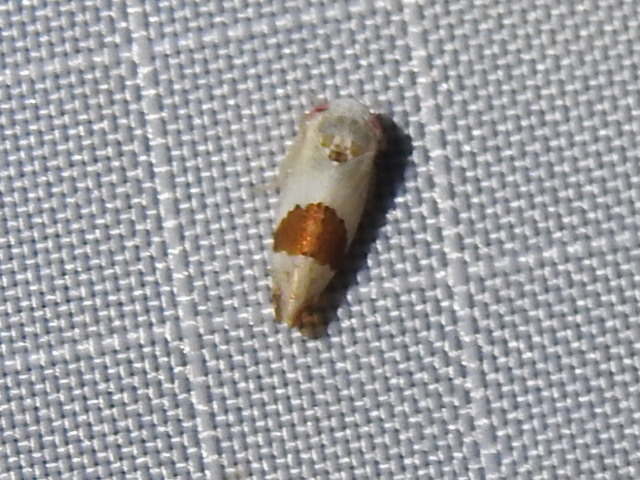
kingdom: Animalia
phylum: Arthropoda
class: Insecta
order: Hemiptera
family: Cicadellidae
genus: Norvellina
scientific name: Norvellina seminuda
